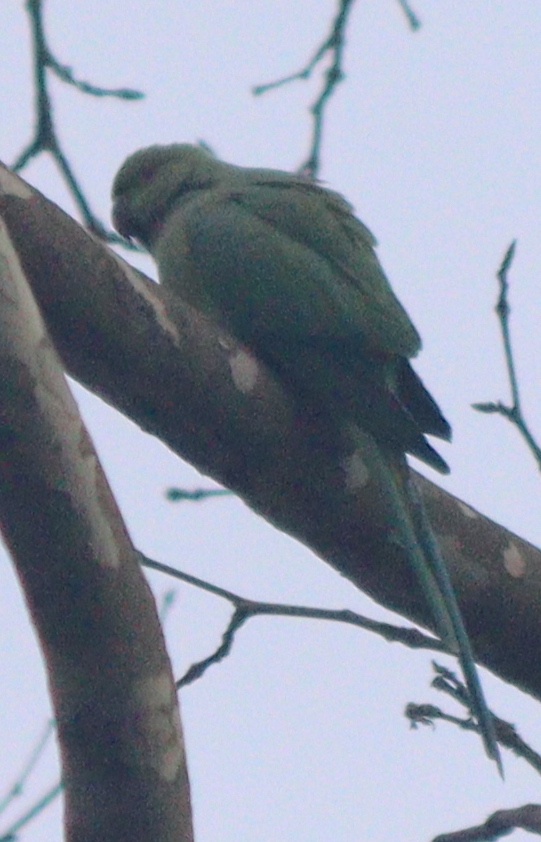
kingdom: Animalia
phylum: Chordata
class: Aves
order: Psittaciformes
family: Psittacidae
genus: Psittacula
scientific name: Psittacula krameri
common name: Rose-ringed parakeet
